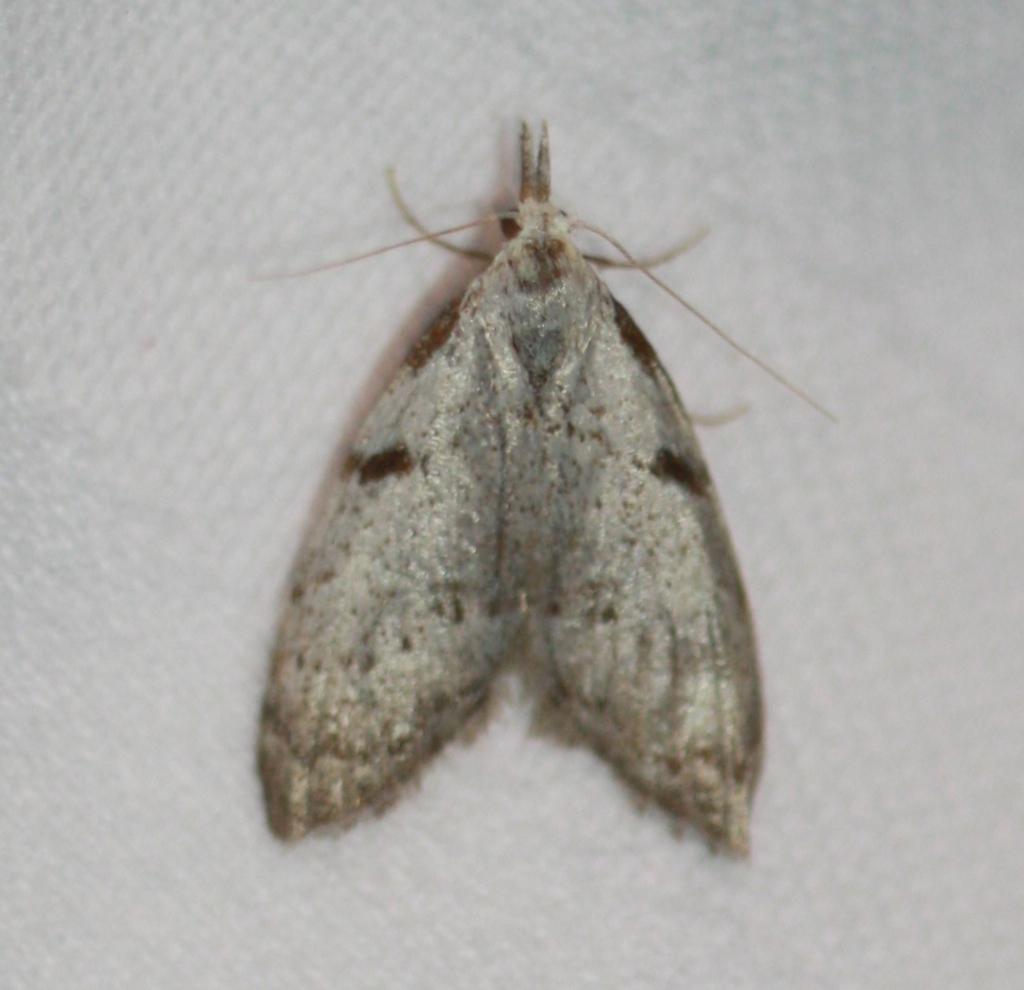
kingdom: Animalia
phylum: Arthropoda
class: Insecta
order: Lepidoptera
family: Nolidae
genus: Nola
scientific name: Nola minna
